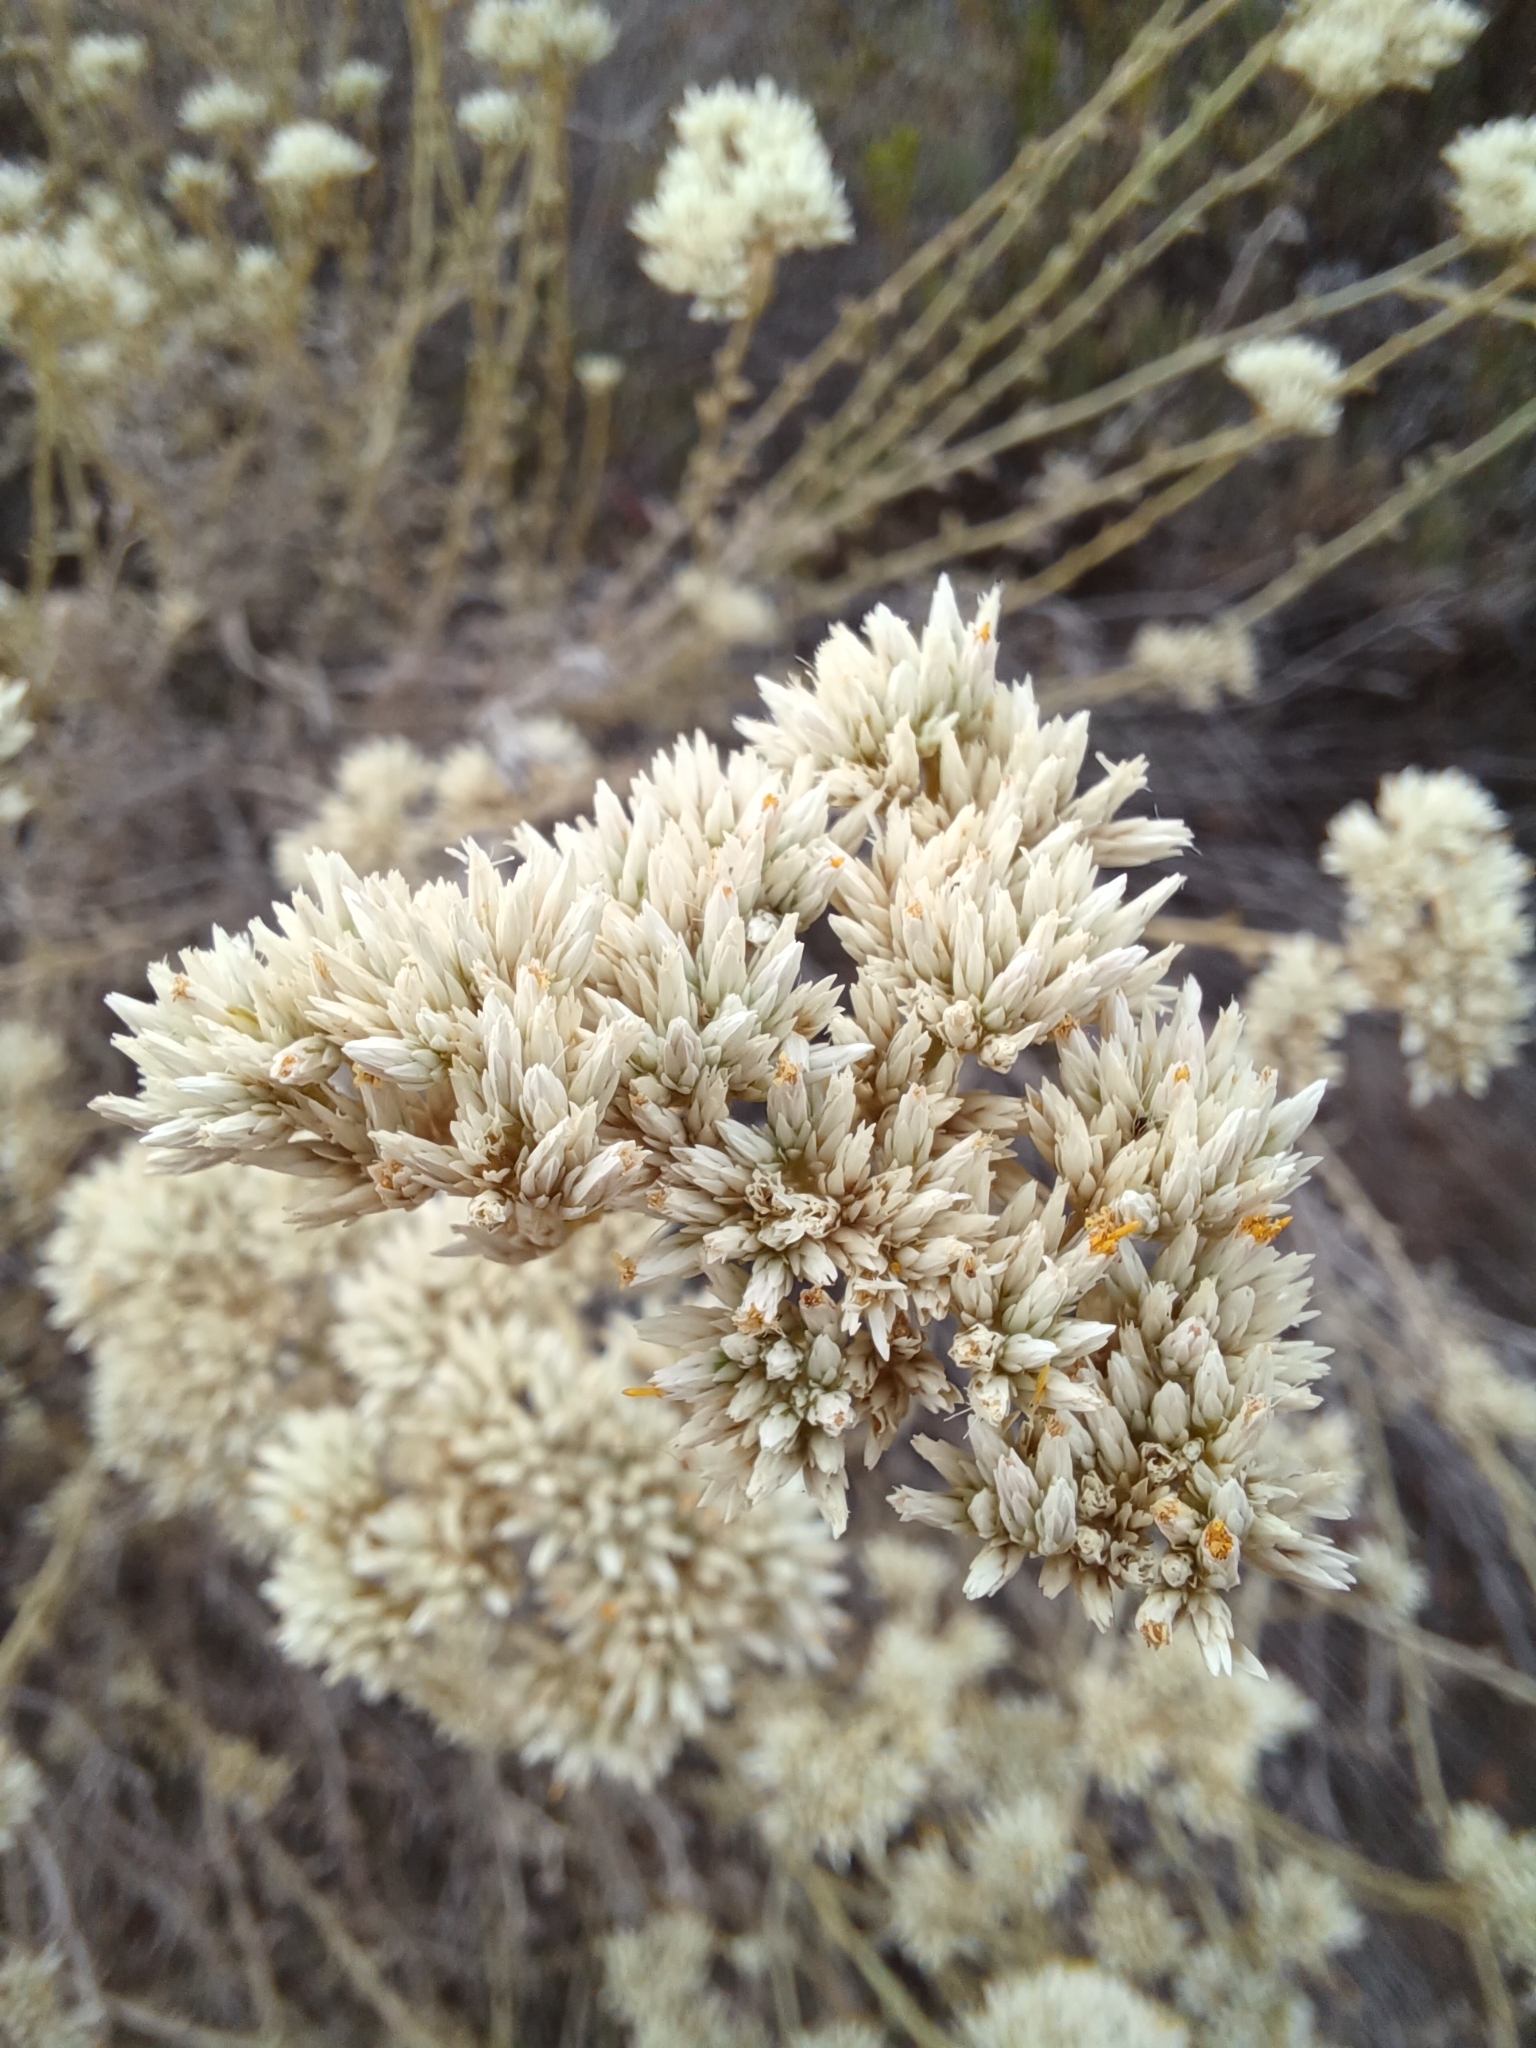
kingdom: Plantae
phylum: Tracheophyta
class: Magnoliopsida
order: Asterales
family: Asteraceae
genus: Helichrysum
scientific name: Helichrysum zeyheri
